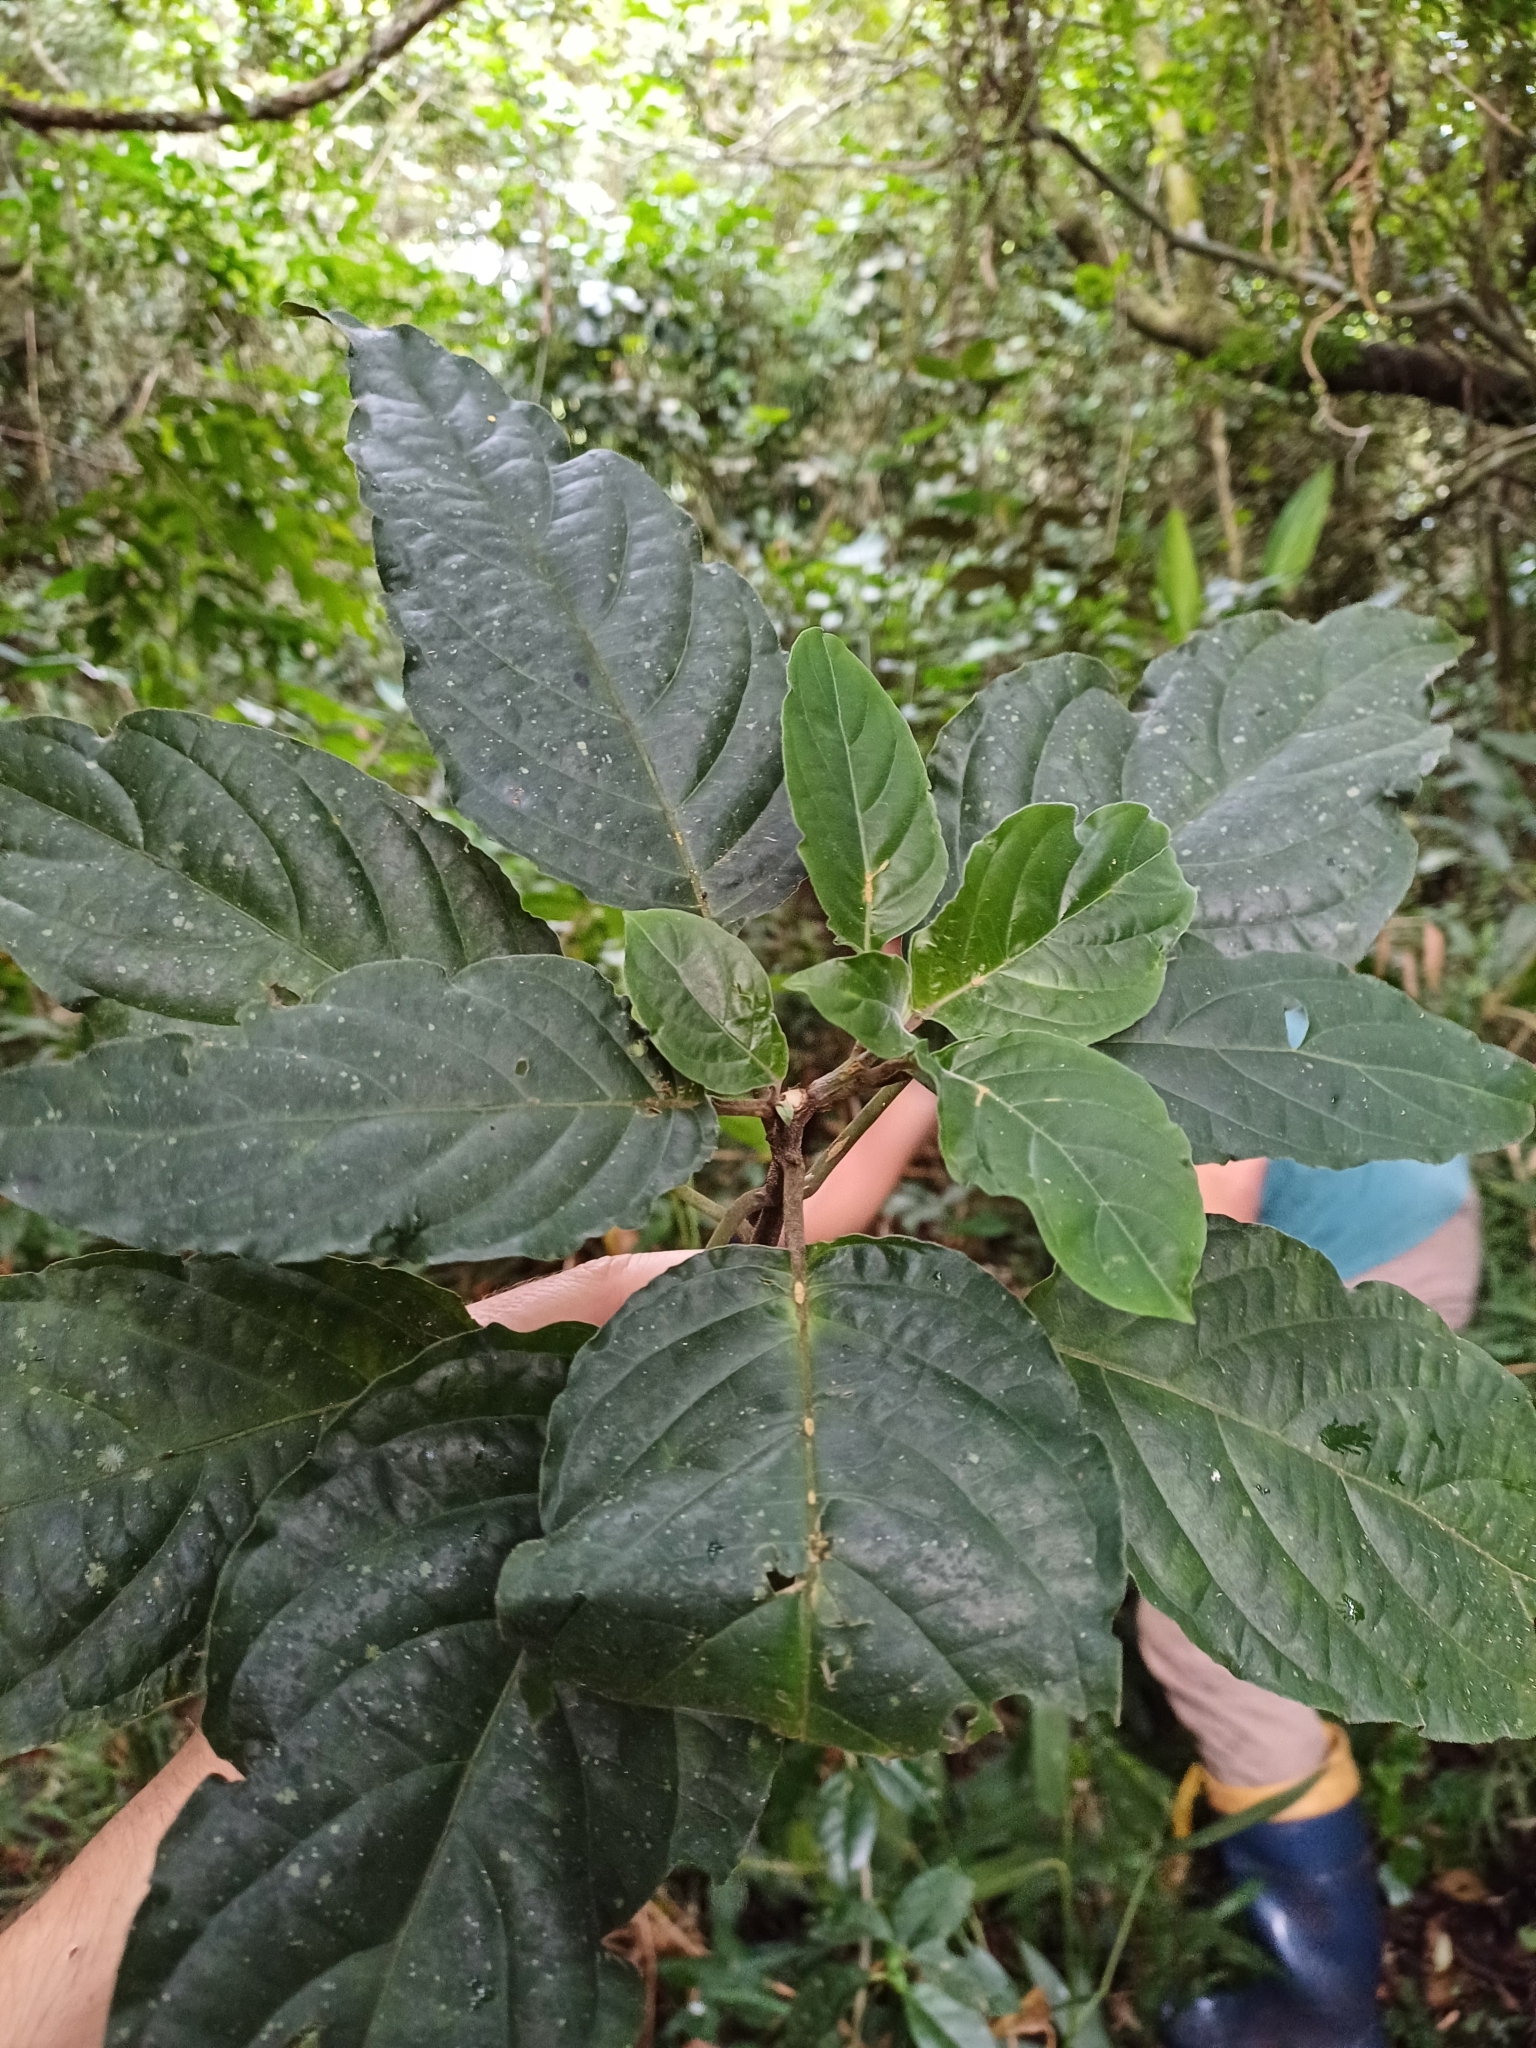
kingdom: Plantae
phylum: Tracheophyta
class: Magnoliopsida
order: Lamiales
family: Acanthaceae
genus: Justicia
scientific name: Justicia carnea
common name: Brazilian-plume
